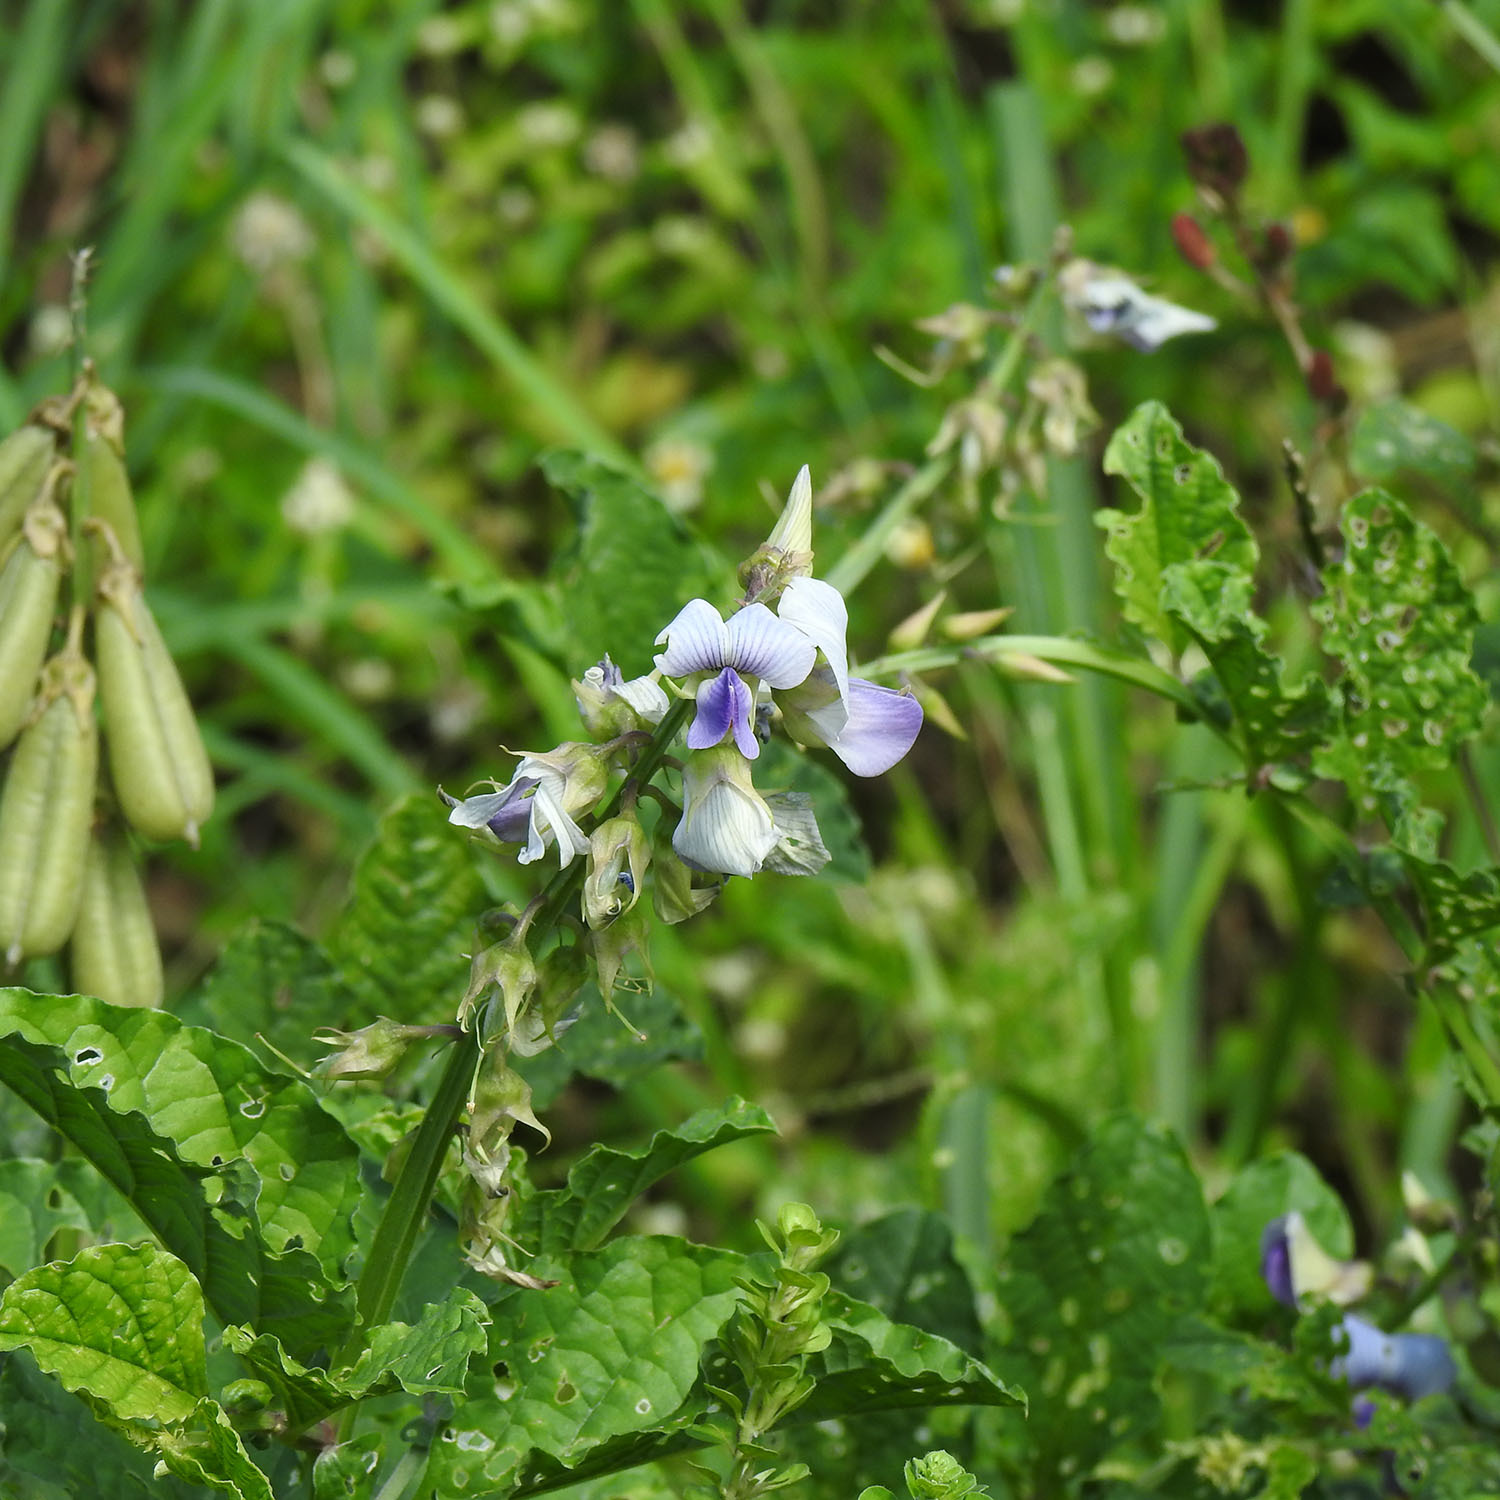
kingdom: Plantae
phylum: Tracheophyta
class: Magnoliopsida
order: Fabales
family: Fabaceae
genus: Crotalaria
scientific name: Crotalaria verrucosa
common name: Blue rattlesnake
